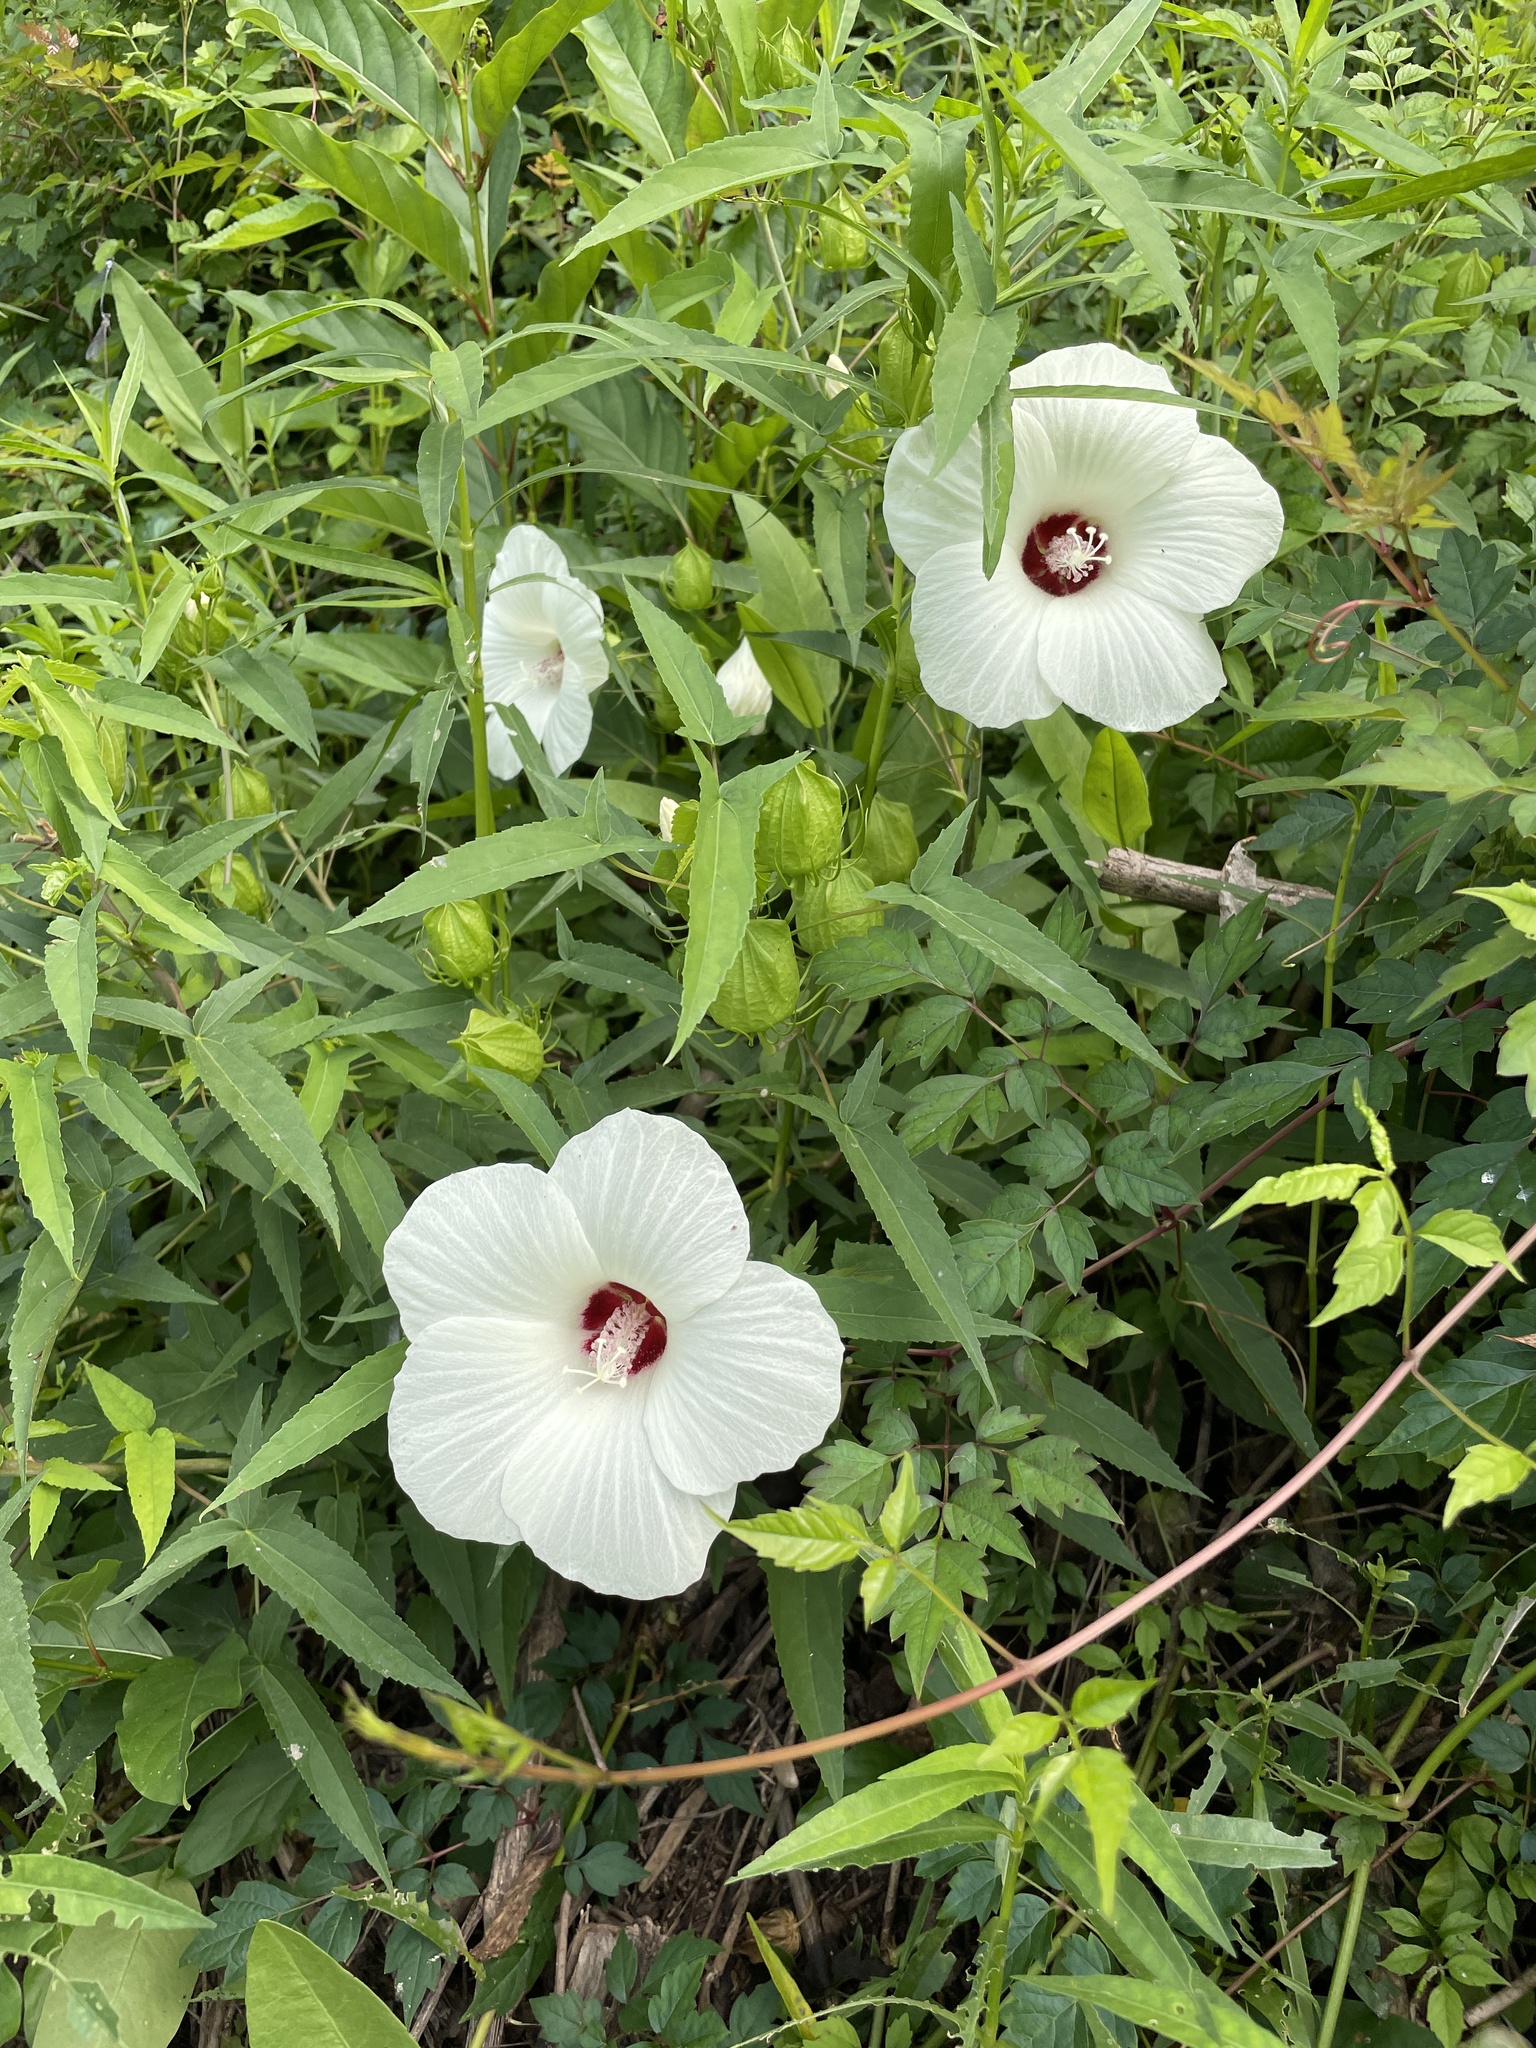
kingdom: Plantae
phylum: Tracheophyta
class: Magnoliopsida
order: Malvales
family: Malvaceae
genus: Hibiscus
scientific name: Hibiscus laevis
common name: Scarlet rose-mallow
